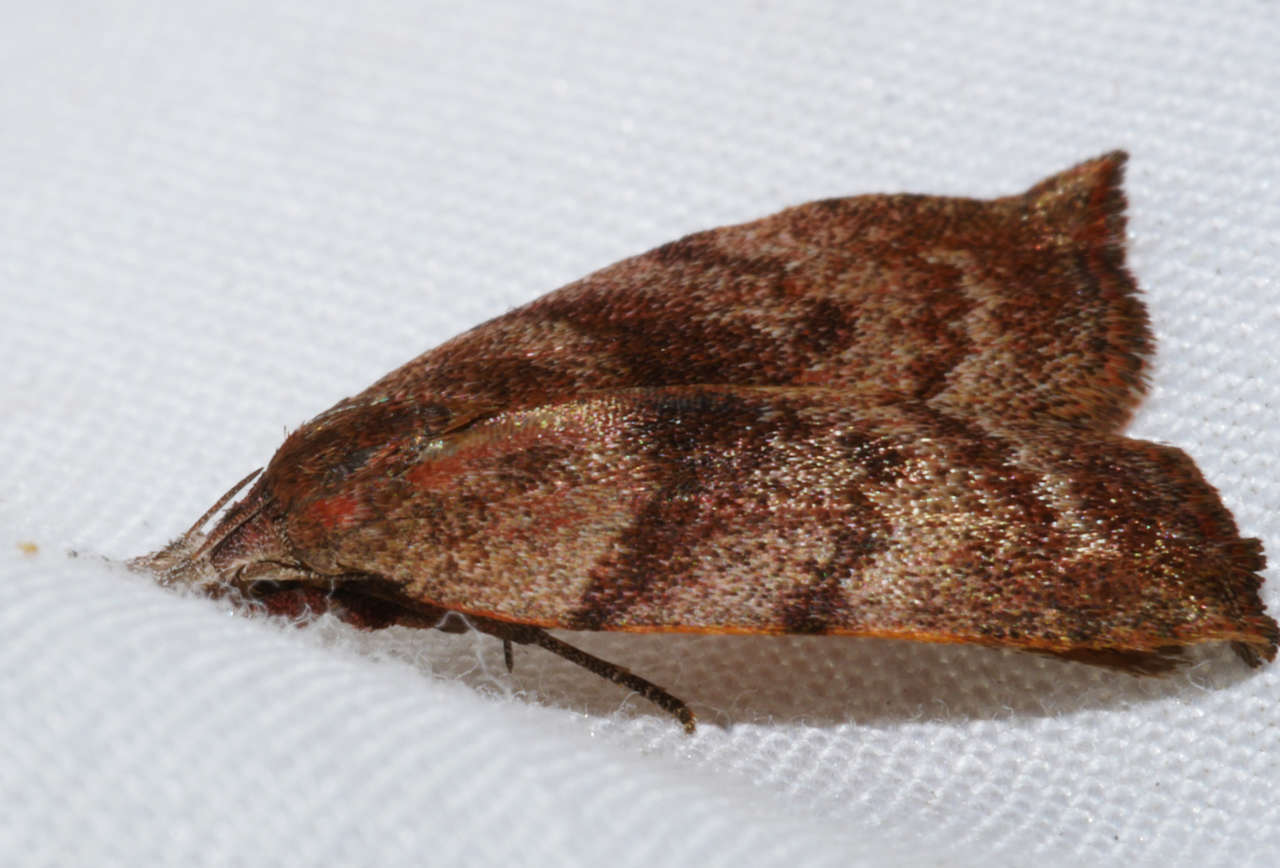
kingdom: Animalia
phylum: Arthropoda
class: Insecta
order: Lepidoptera
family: Oecophoridae
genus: Tortricopsis
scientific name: Tortricopsis euryphanella
